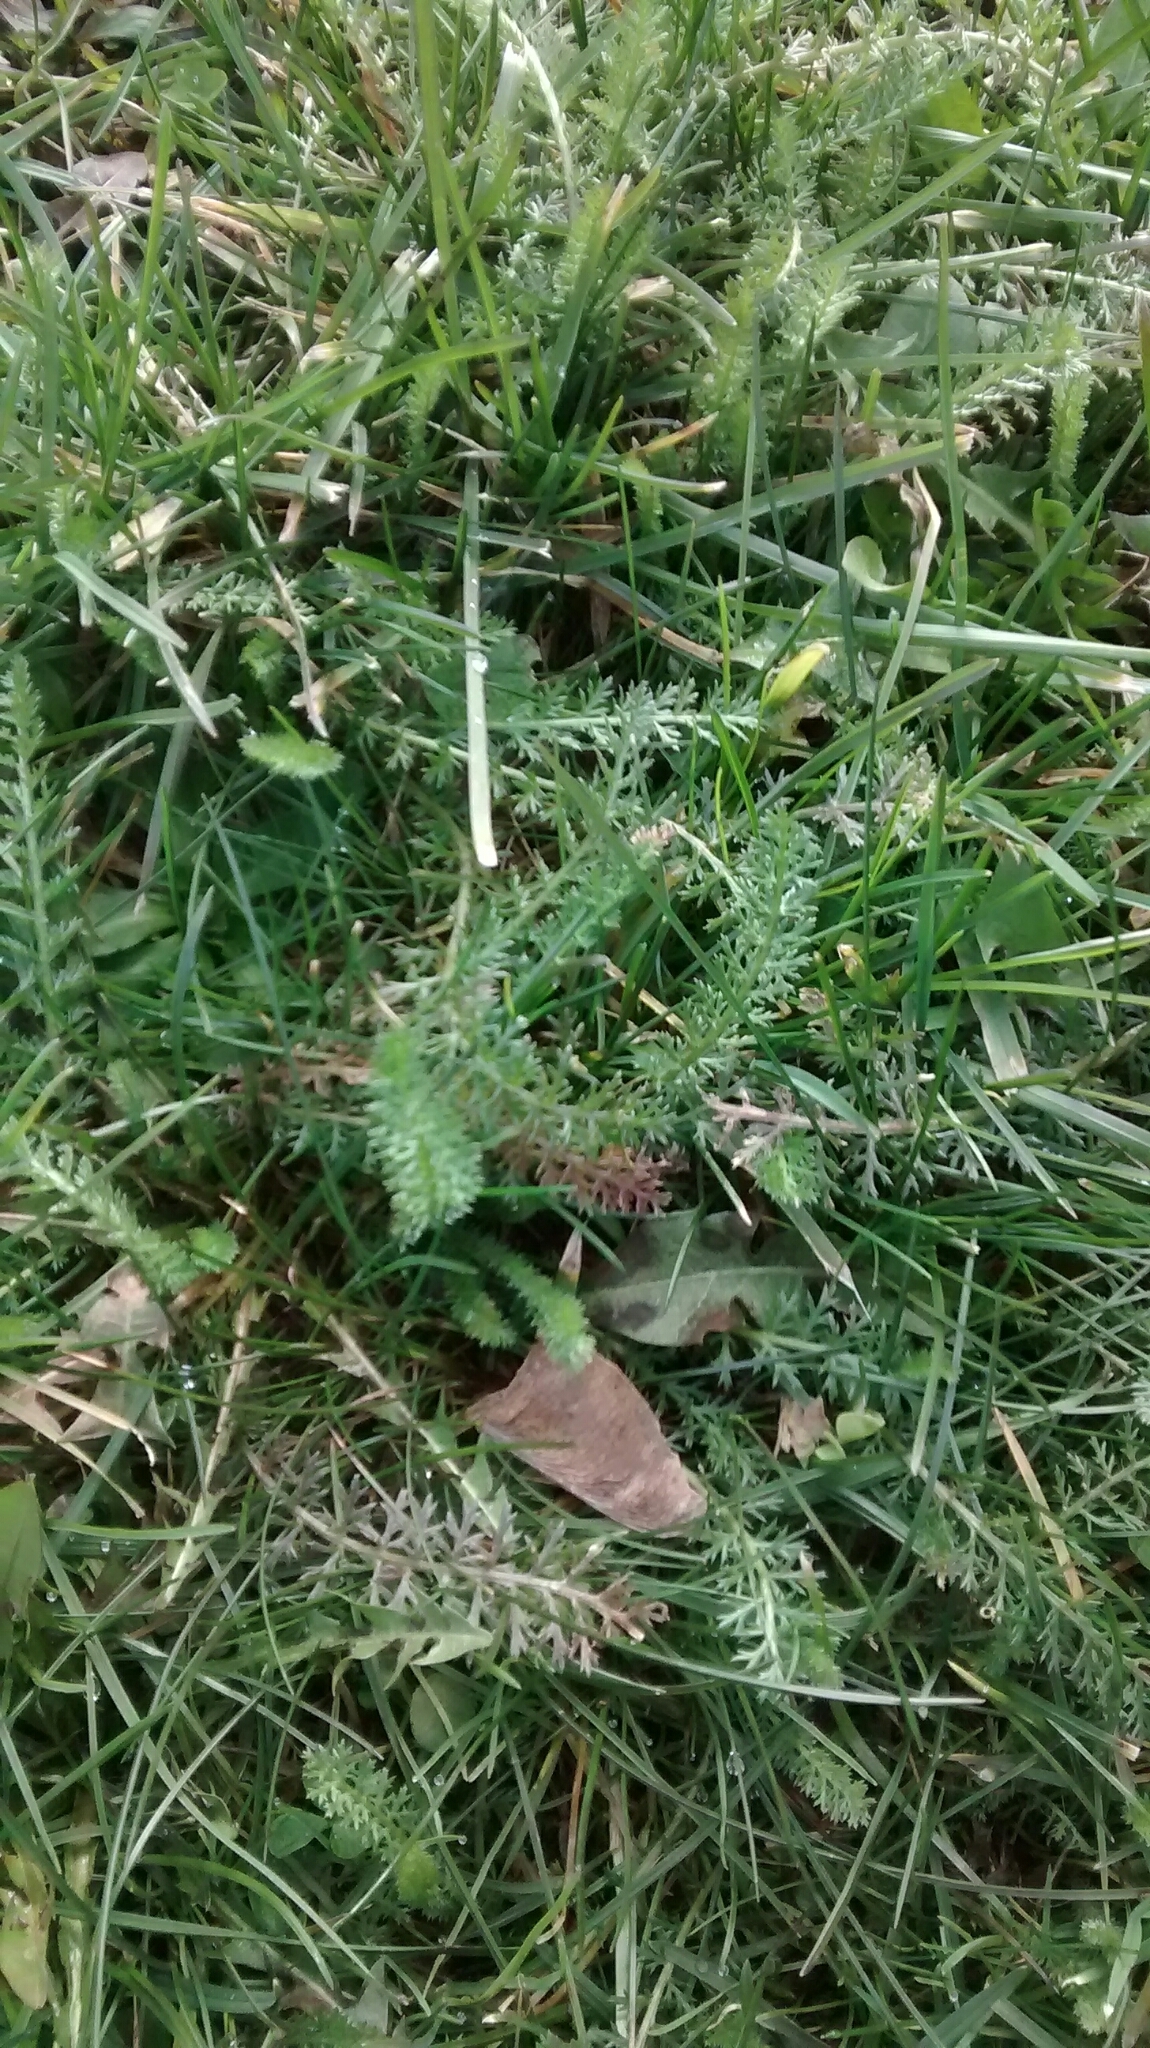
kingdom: Plantae
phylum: Tracheophyta
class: Magnoliopsida
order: Asterales
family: Asteraceae
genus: Achillea
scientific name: Achillea millefolium
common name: Yarrow
